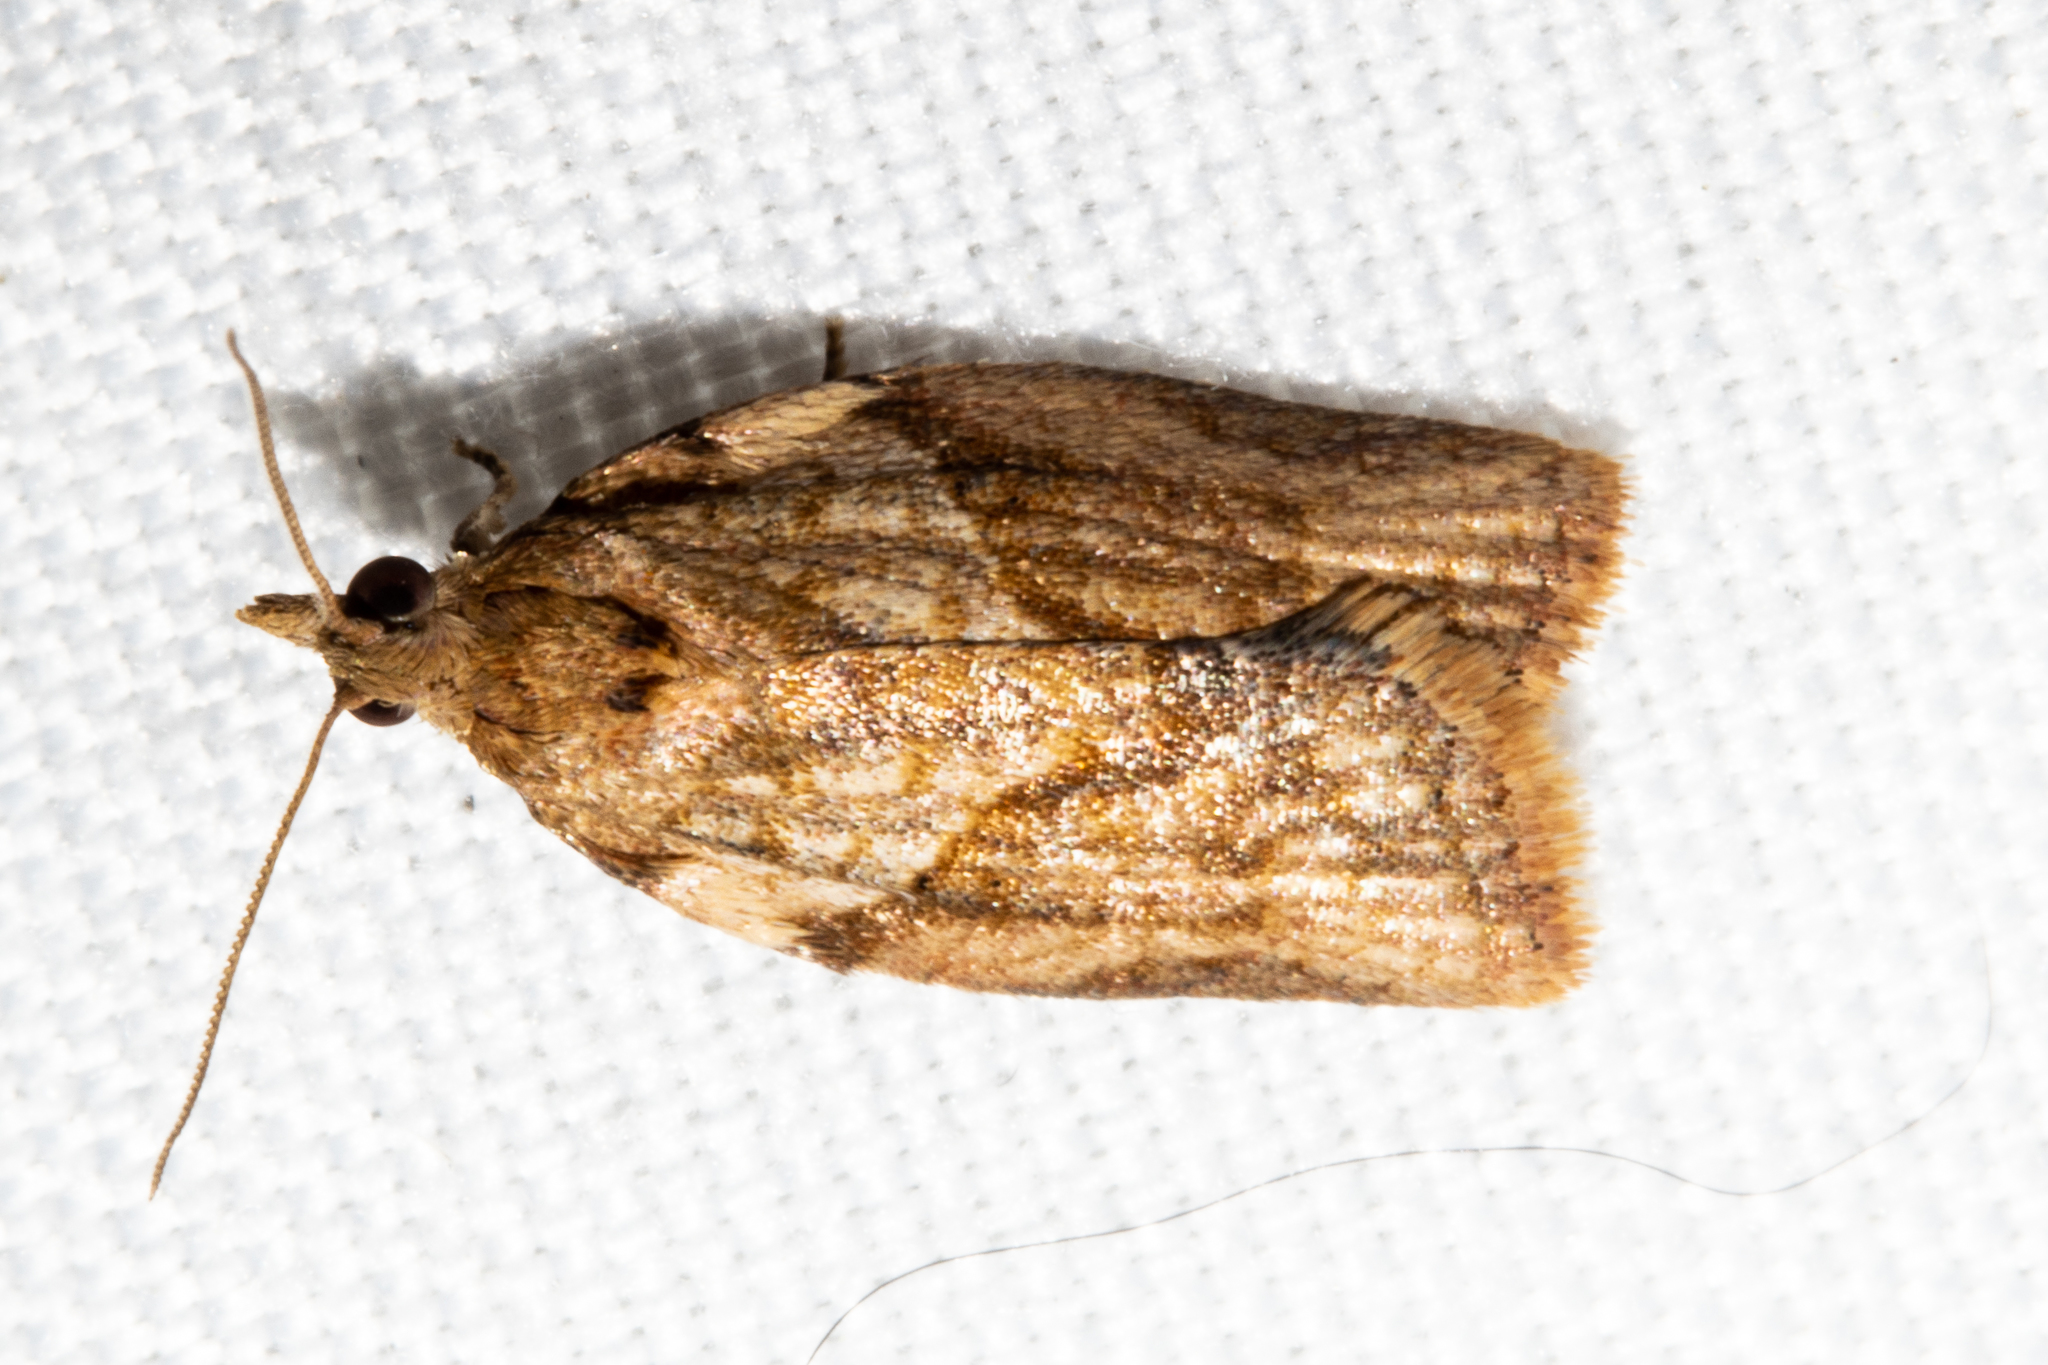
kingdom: Animalia
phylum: Arthropoda
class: Insecta
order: Lepidoptera
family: Tortricidae
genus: Epiphyas
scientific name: Epiphyas postvittana
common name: Light brown apple moth
